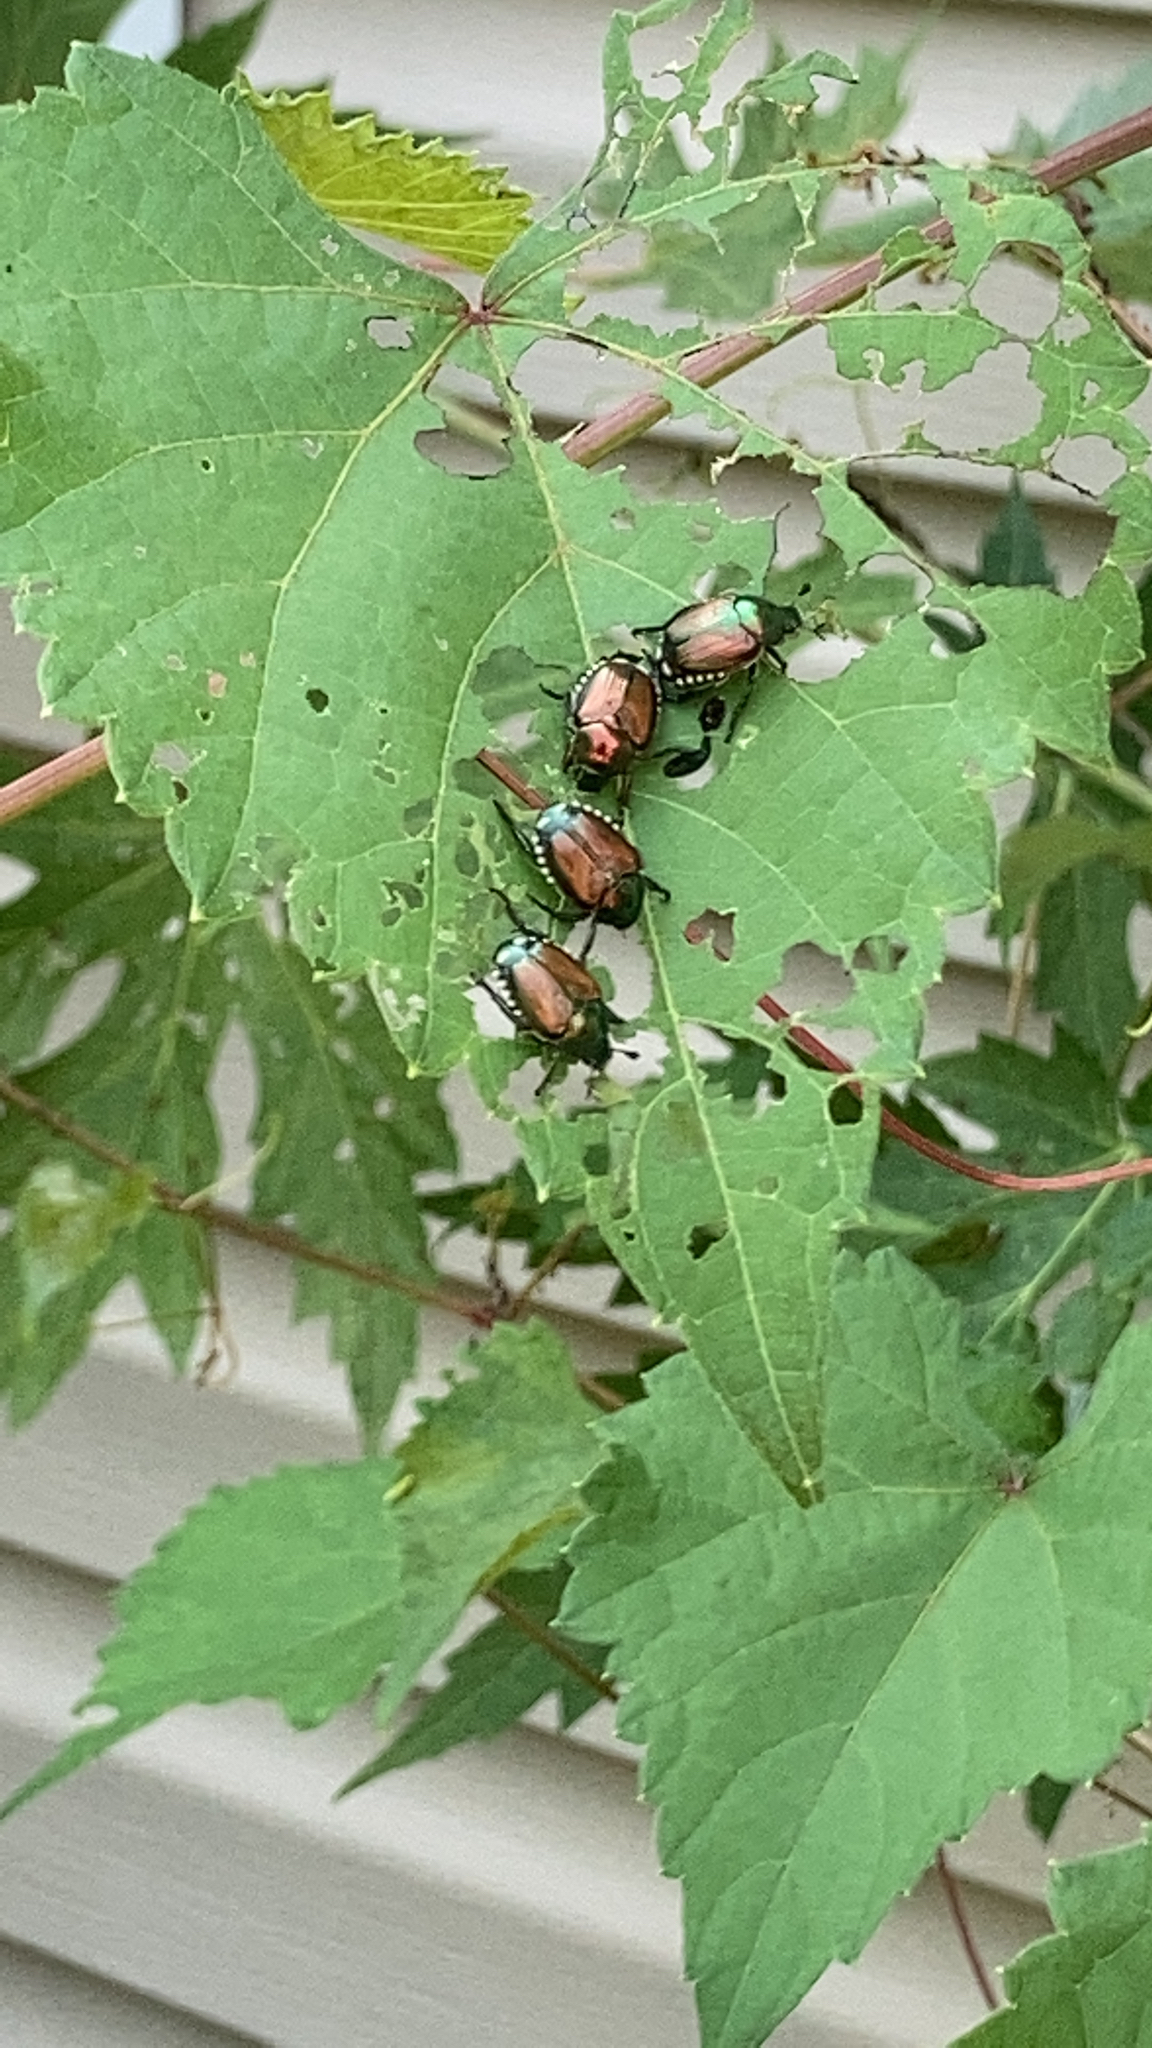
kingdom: Animalia
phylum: Arthropoda
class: Insecta
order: Coleoptera
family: Scarabaeidae
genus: Popillia
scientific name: Popillia japonica
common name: Japanese beetle
